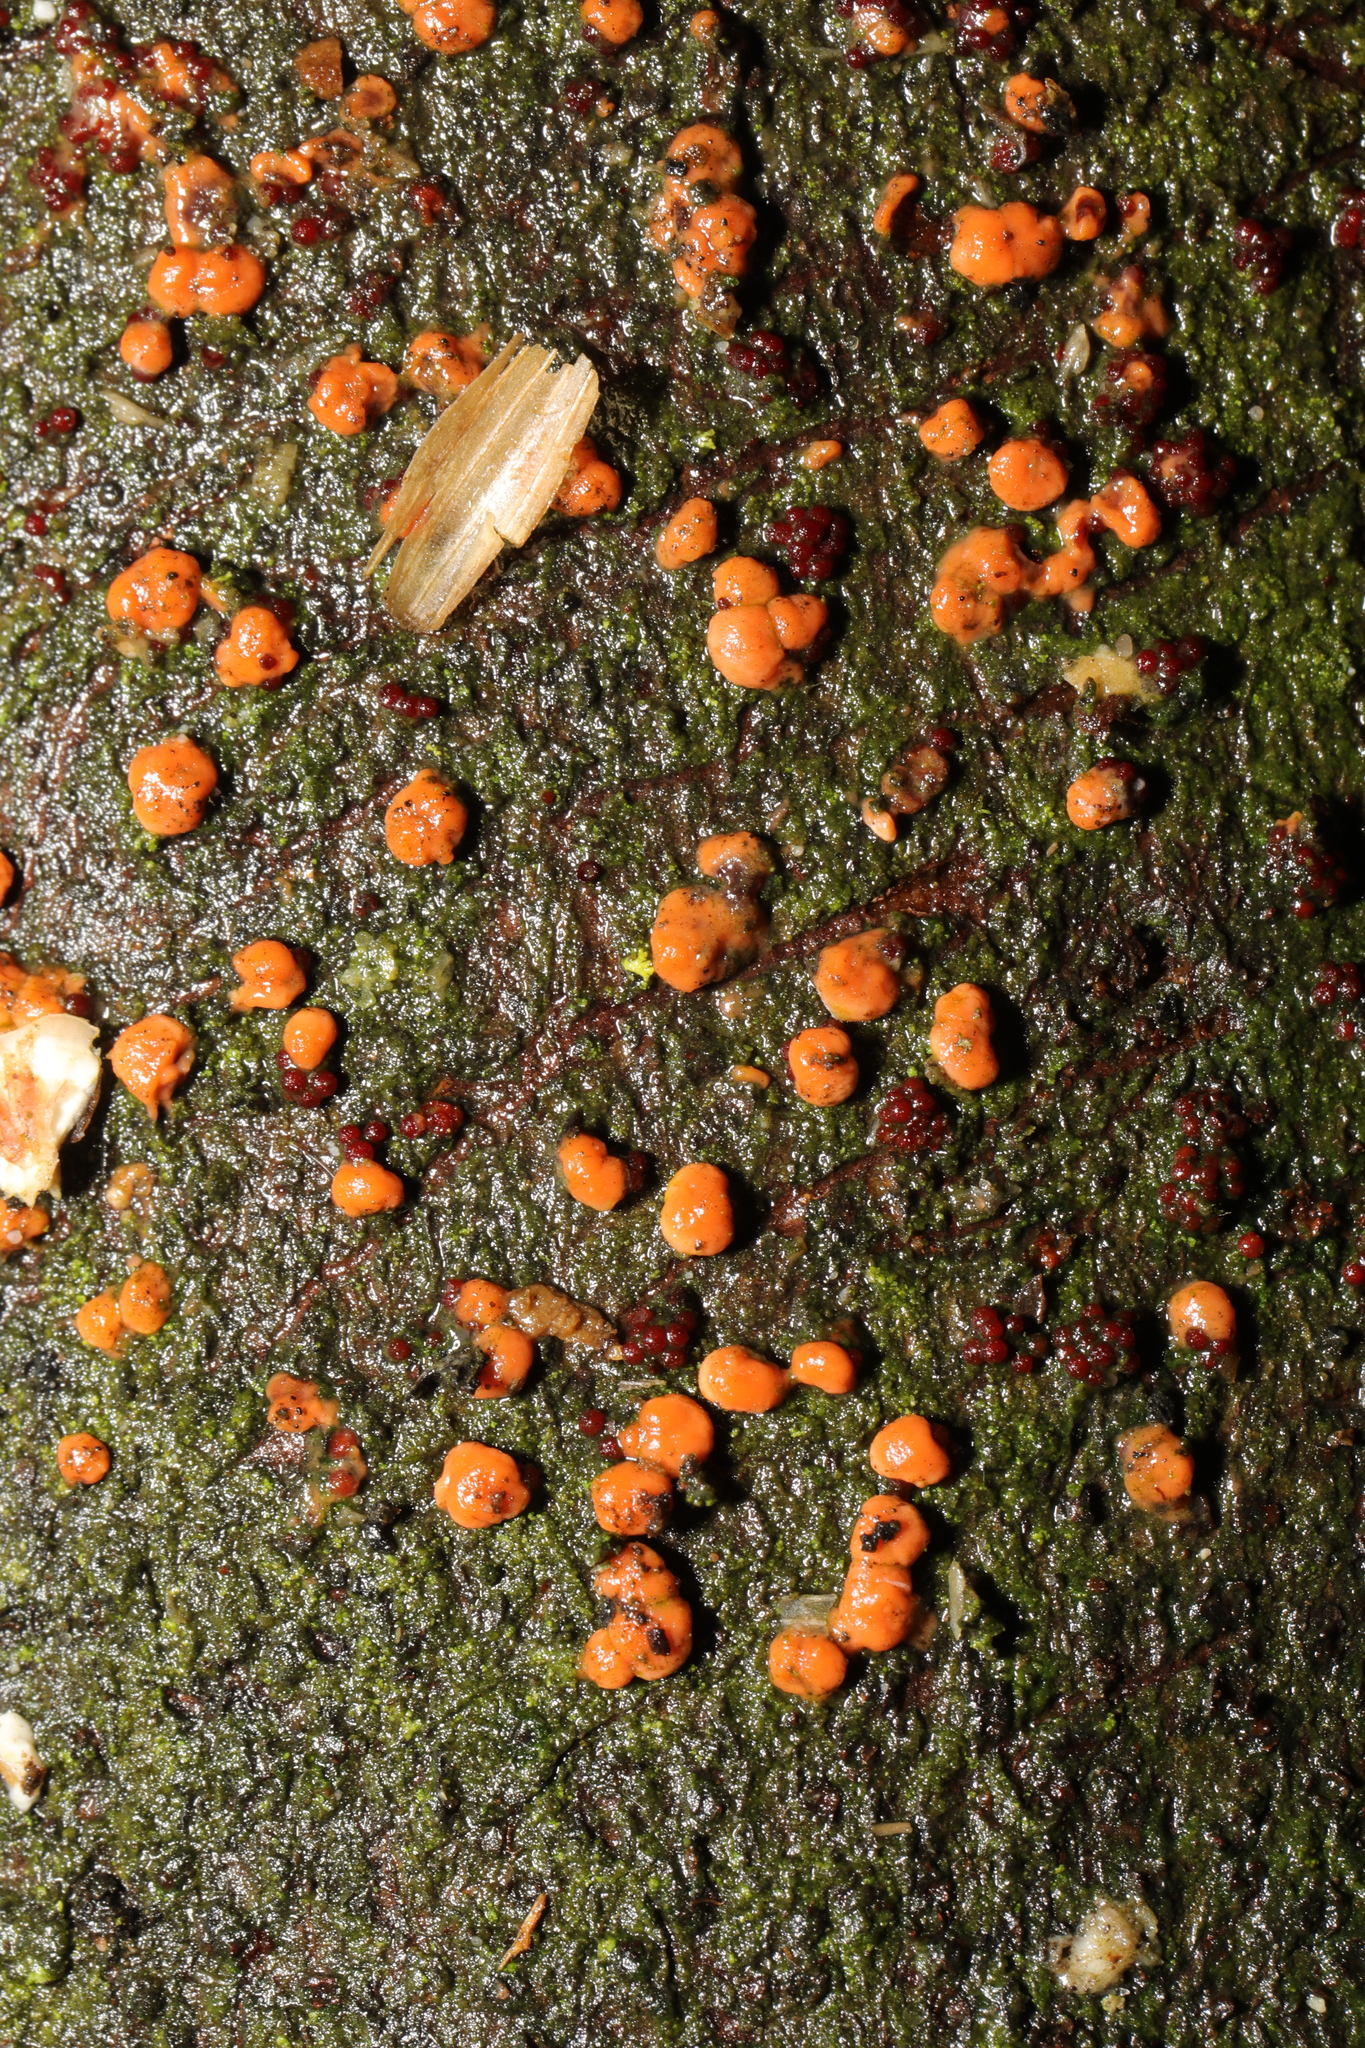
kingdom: Fungi
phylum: Ascomycota
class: Sordariomycetes
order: Hypocreales
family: Nectriaceae
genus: Nectria
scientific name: Nectria cinnabarina
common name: Coral spot
